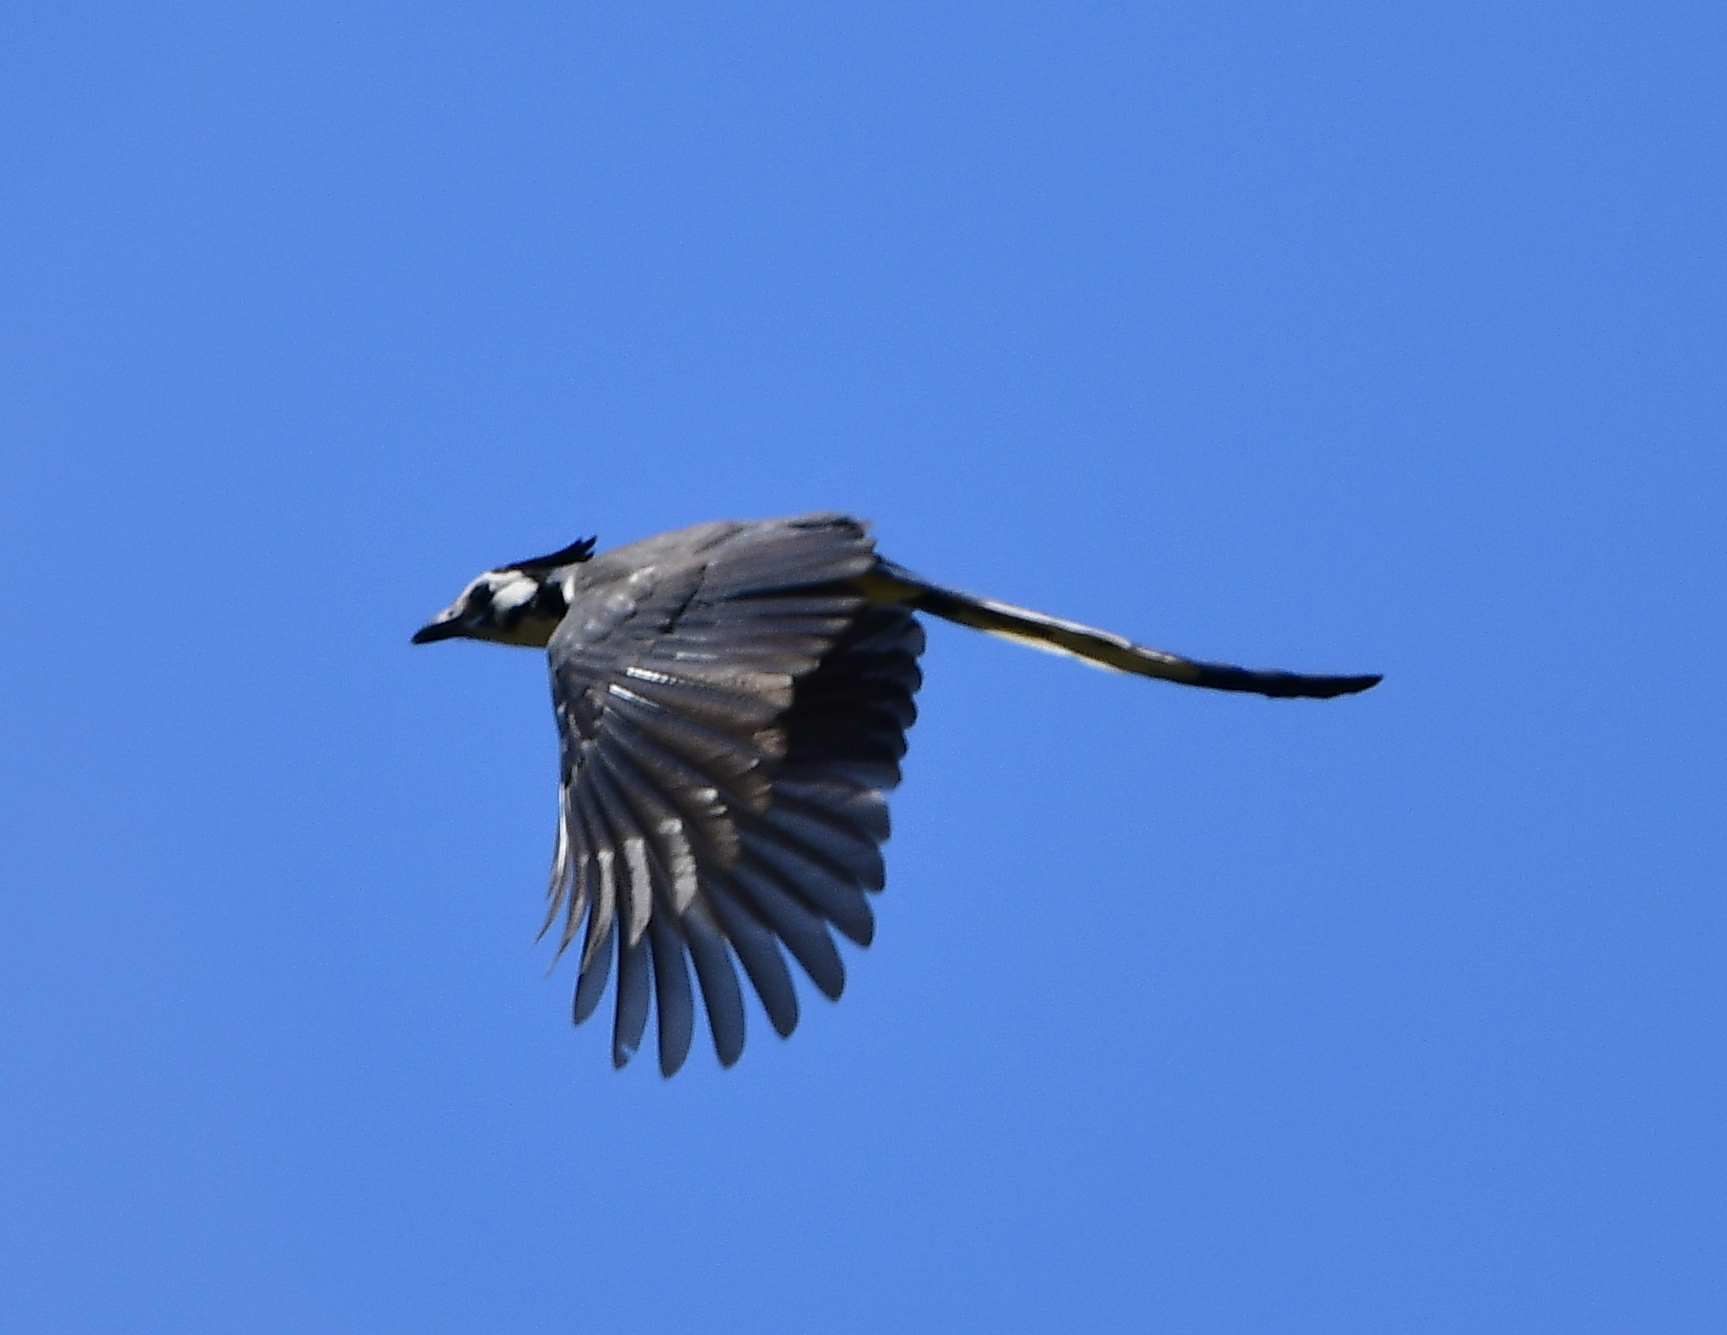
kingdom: Animalia
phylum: Chordata
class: Aves
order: Passeriformes
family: Corvidae
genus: Calocitta
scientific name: Calocitta formosa
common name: White-throated magpie-jay
